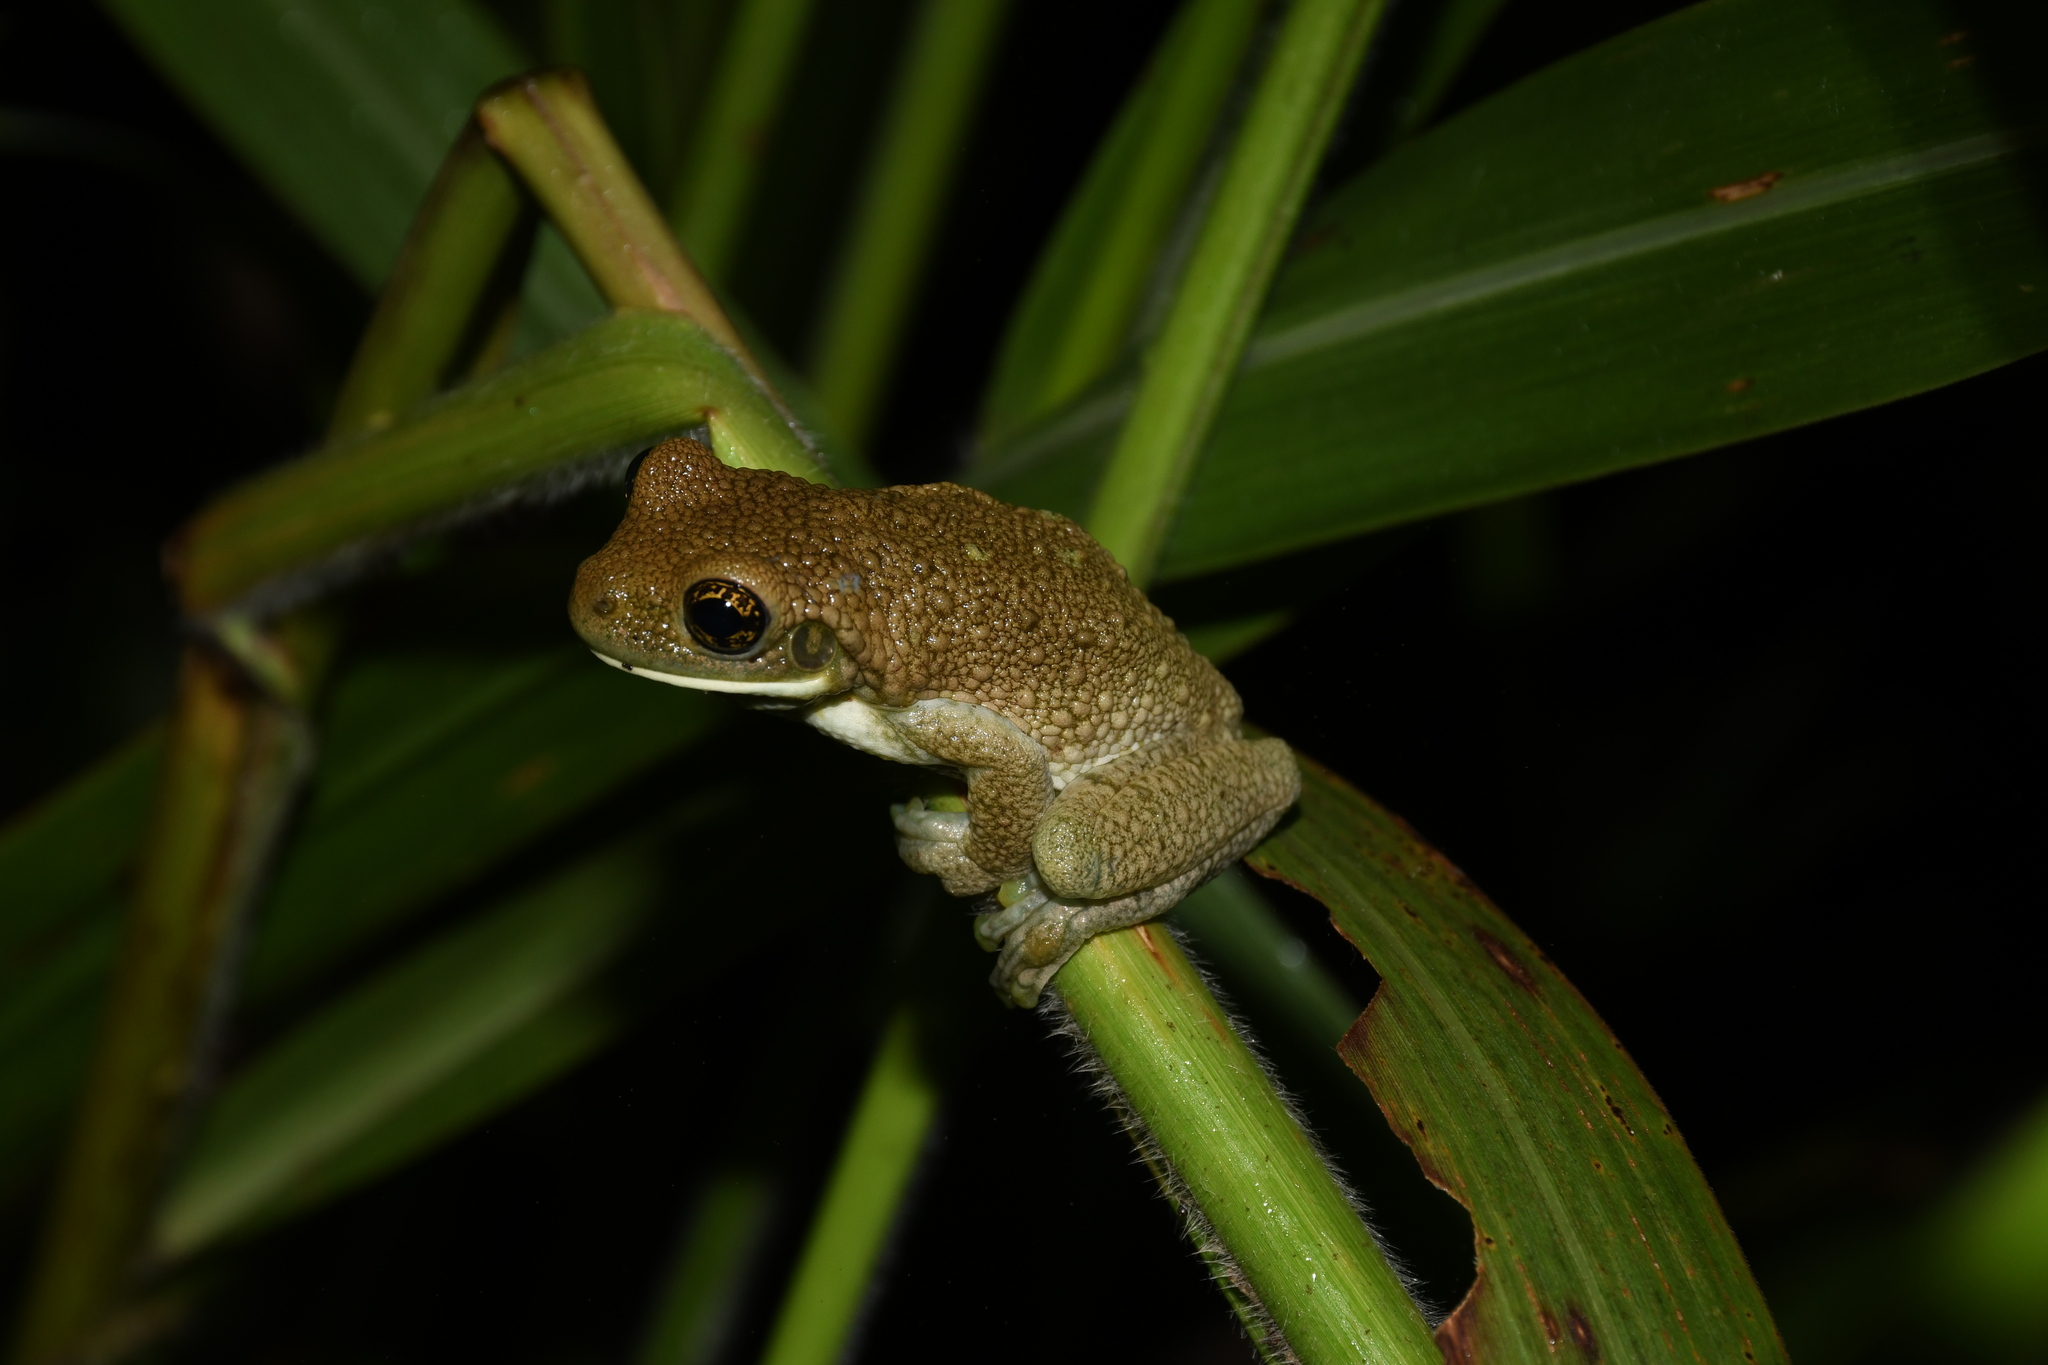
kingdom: Animalia
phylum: Chordata
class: Amphibia
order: Anura
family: Hylidae
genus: Trachycephalus
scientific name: Trachycephalus typhonius
